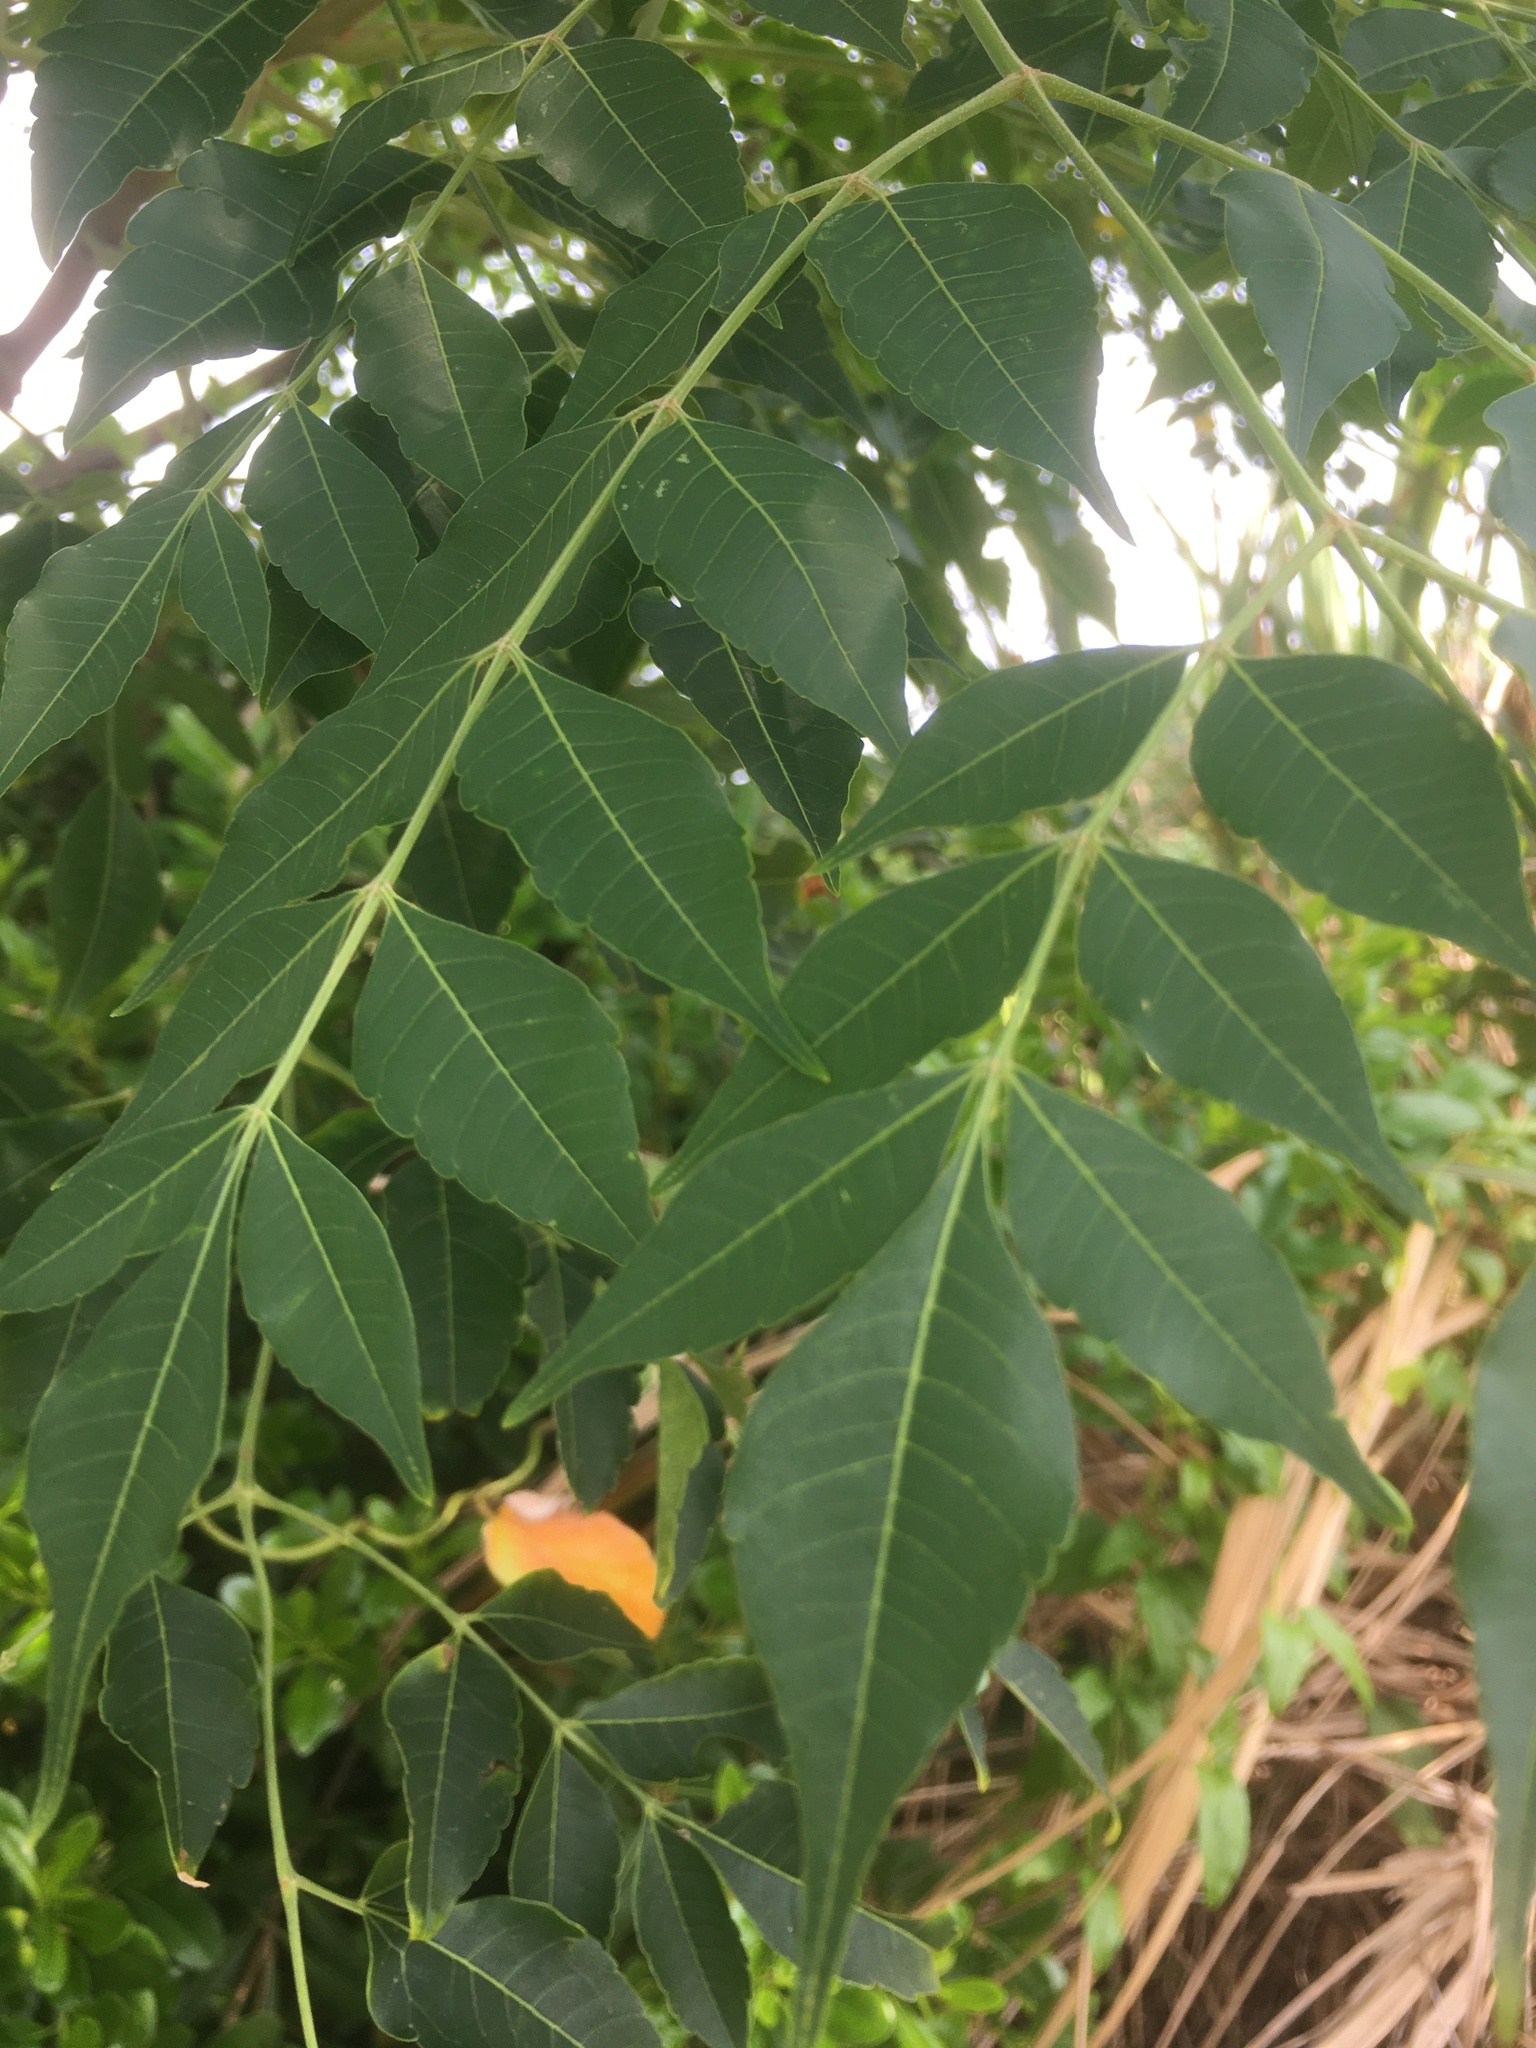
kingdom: Plantae
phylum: Tracheophyta
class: Magnoliopsida
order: Sapindales
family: Meliaceae
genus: Melia
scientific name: Melia azedarach
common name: Chinaberrytree
